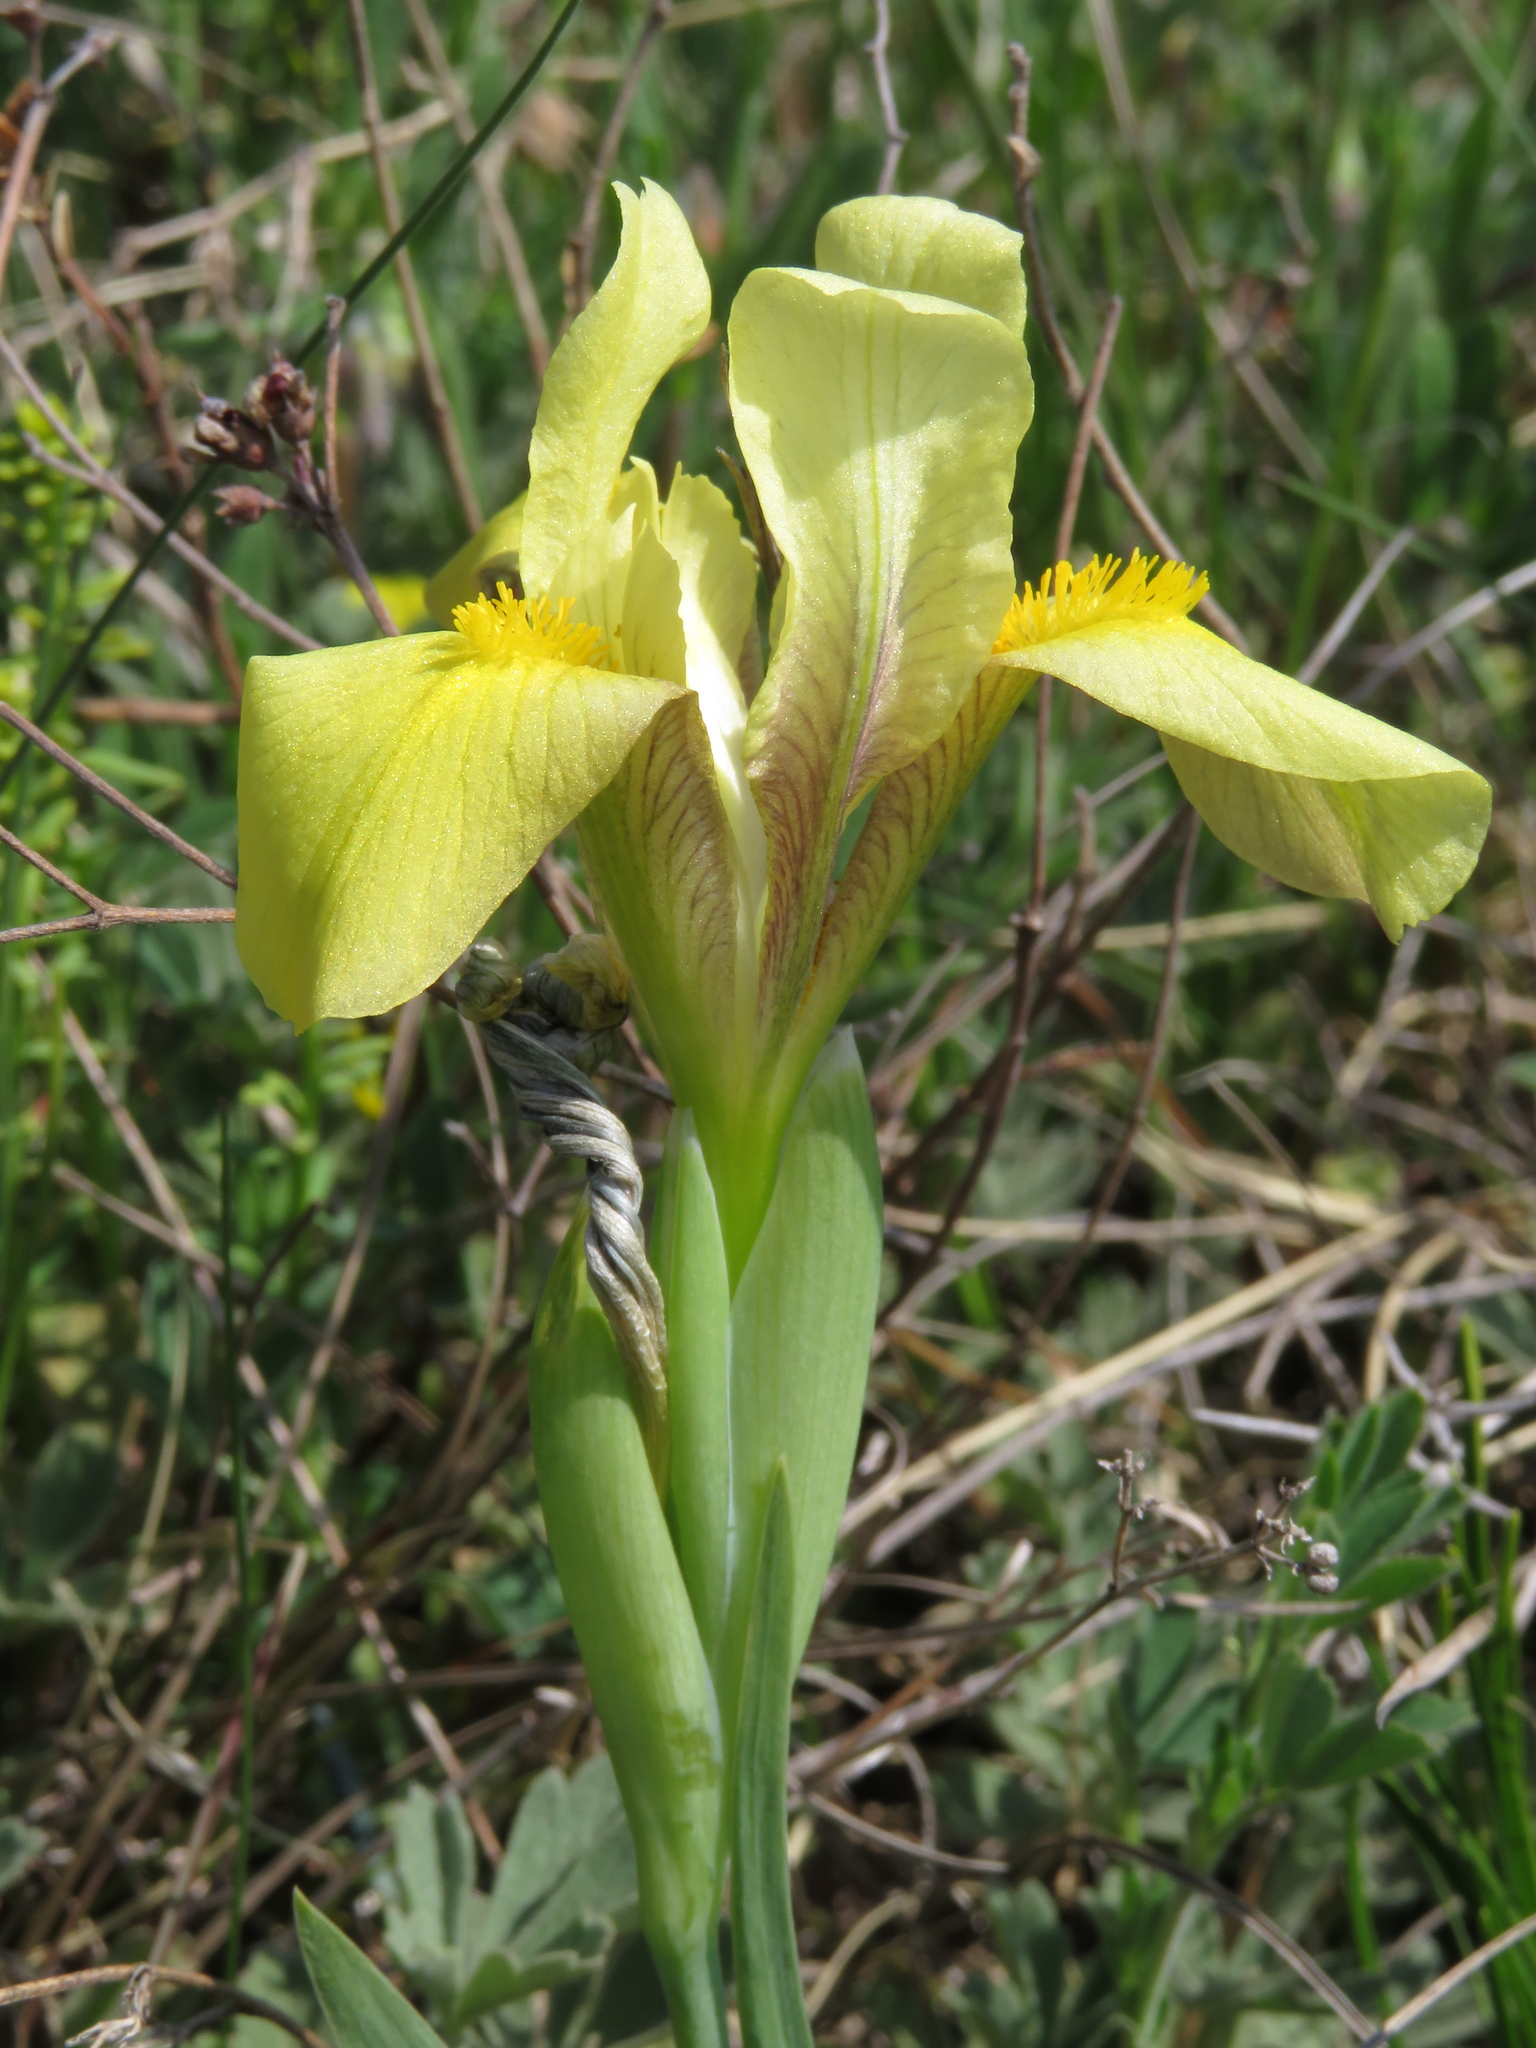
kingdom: Plantae
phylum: Tracheophyta
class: Liliopsida
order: Asparagales
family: Iridaceae
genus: Iris
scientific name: Iris arenaria
